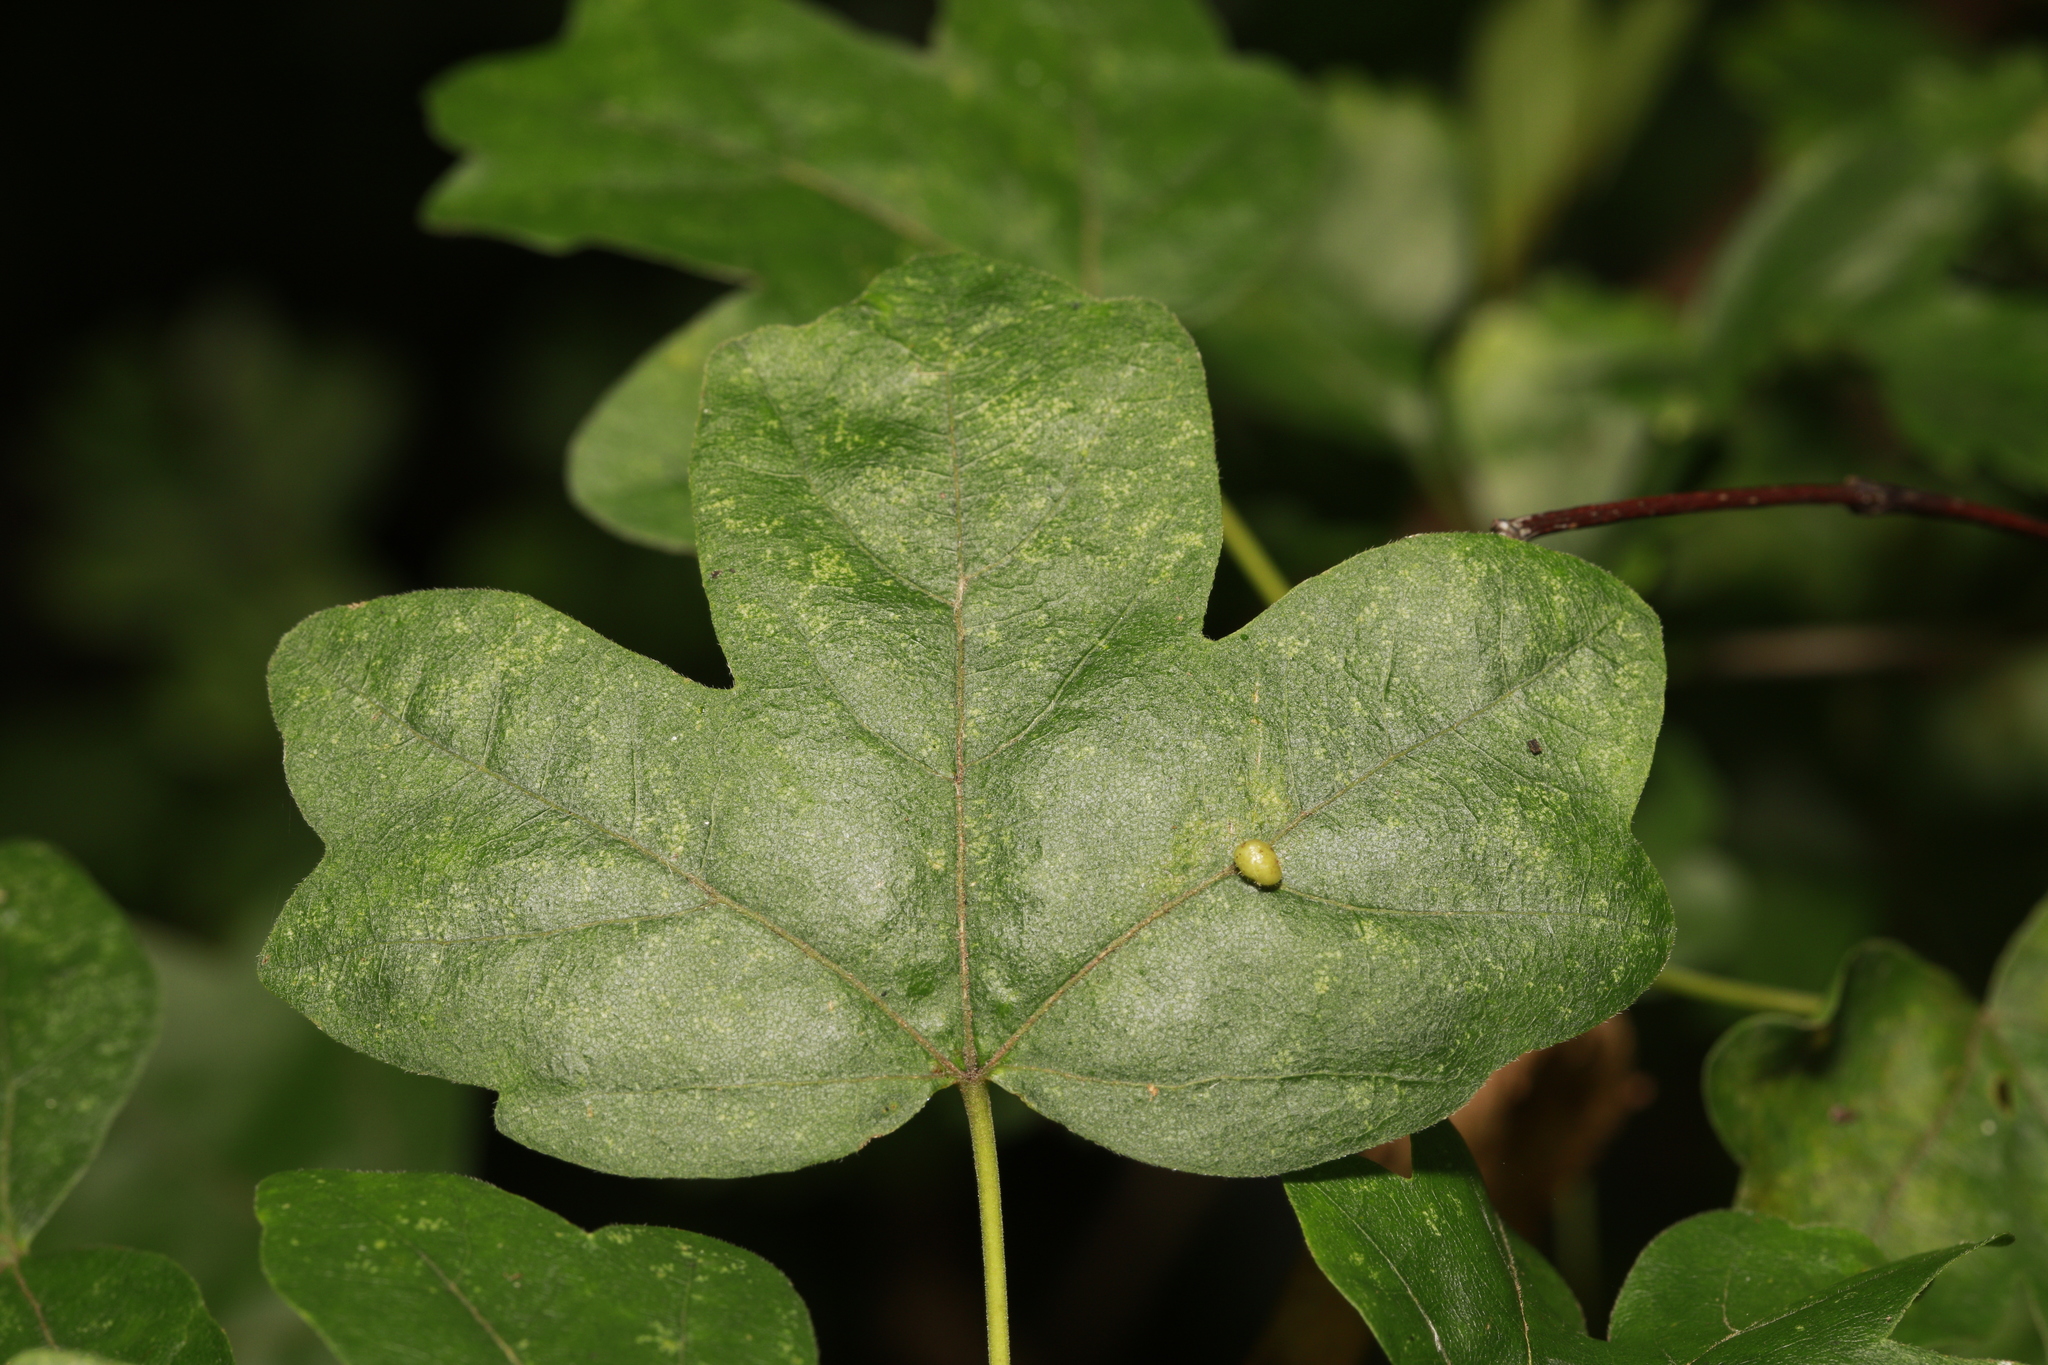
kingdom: Animalia
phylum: Arthropoda
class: Arachnida
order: Trombidiformes
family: Eriophyidae
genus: Aceria
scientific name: Aceria macrochelus
